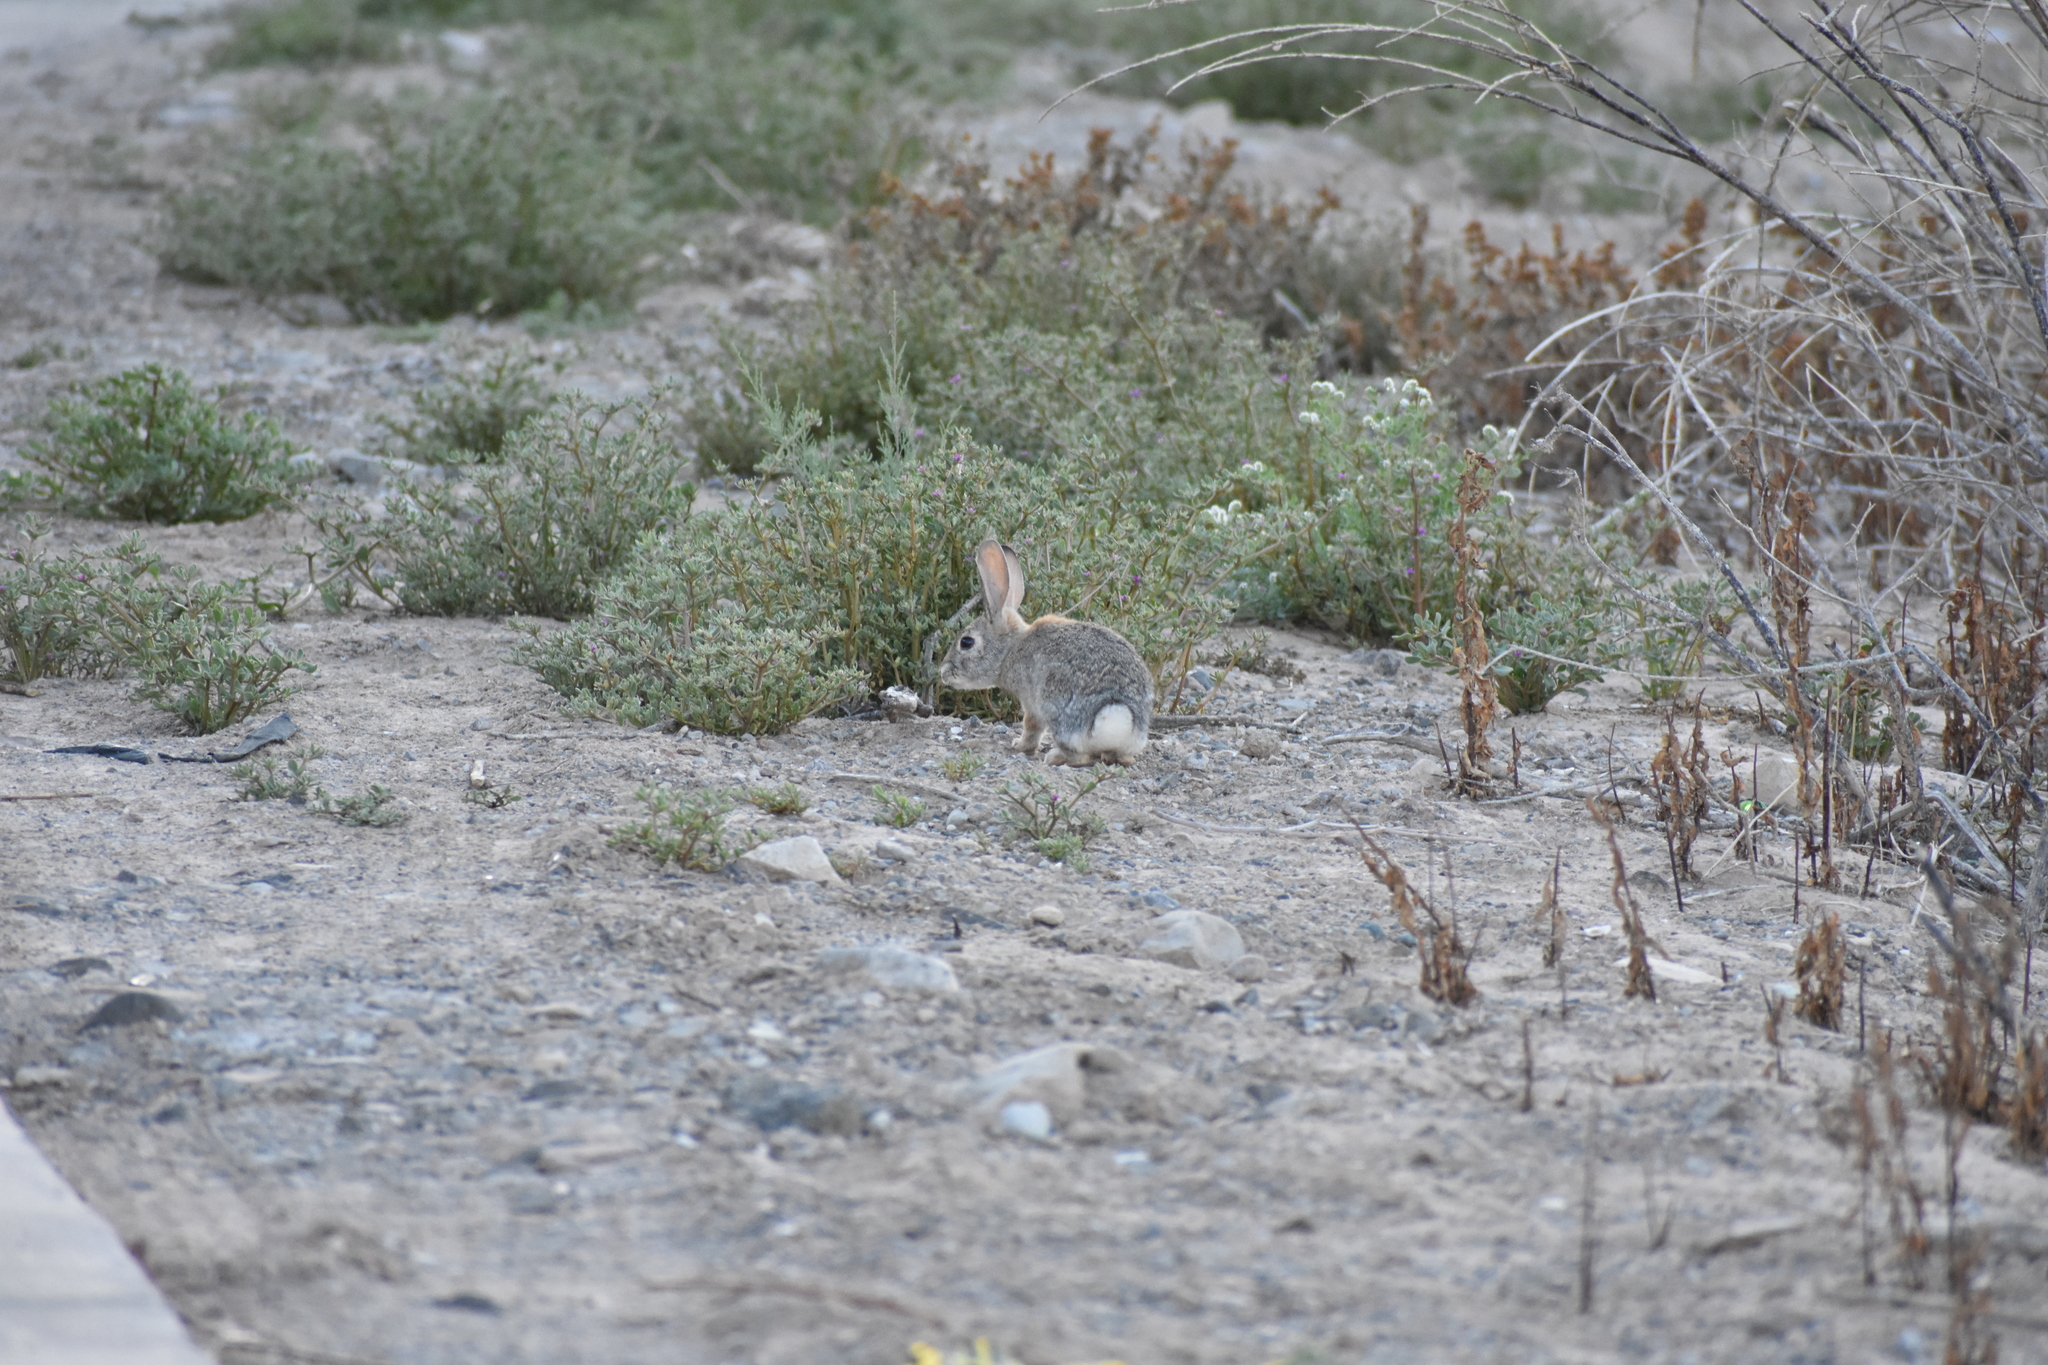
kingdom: Animalia
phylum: Chordata
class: Mammalia
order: Lagomorpha
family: Leporidae
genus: Sylvilagus
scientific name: Sylvilagus audubonii
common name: Desert cottontail
